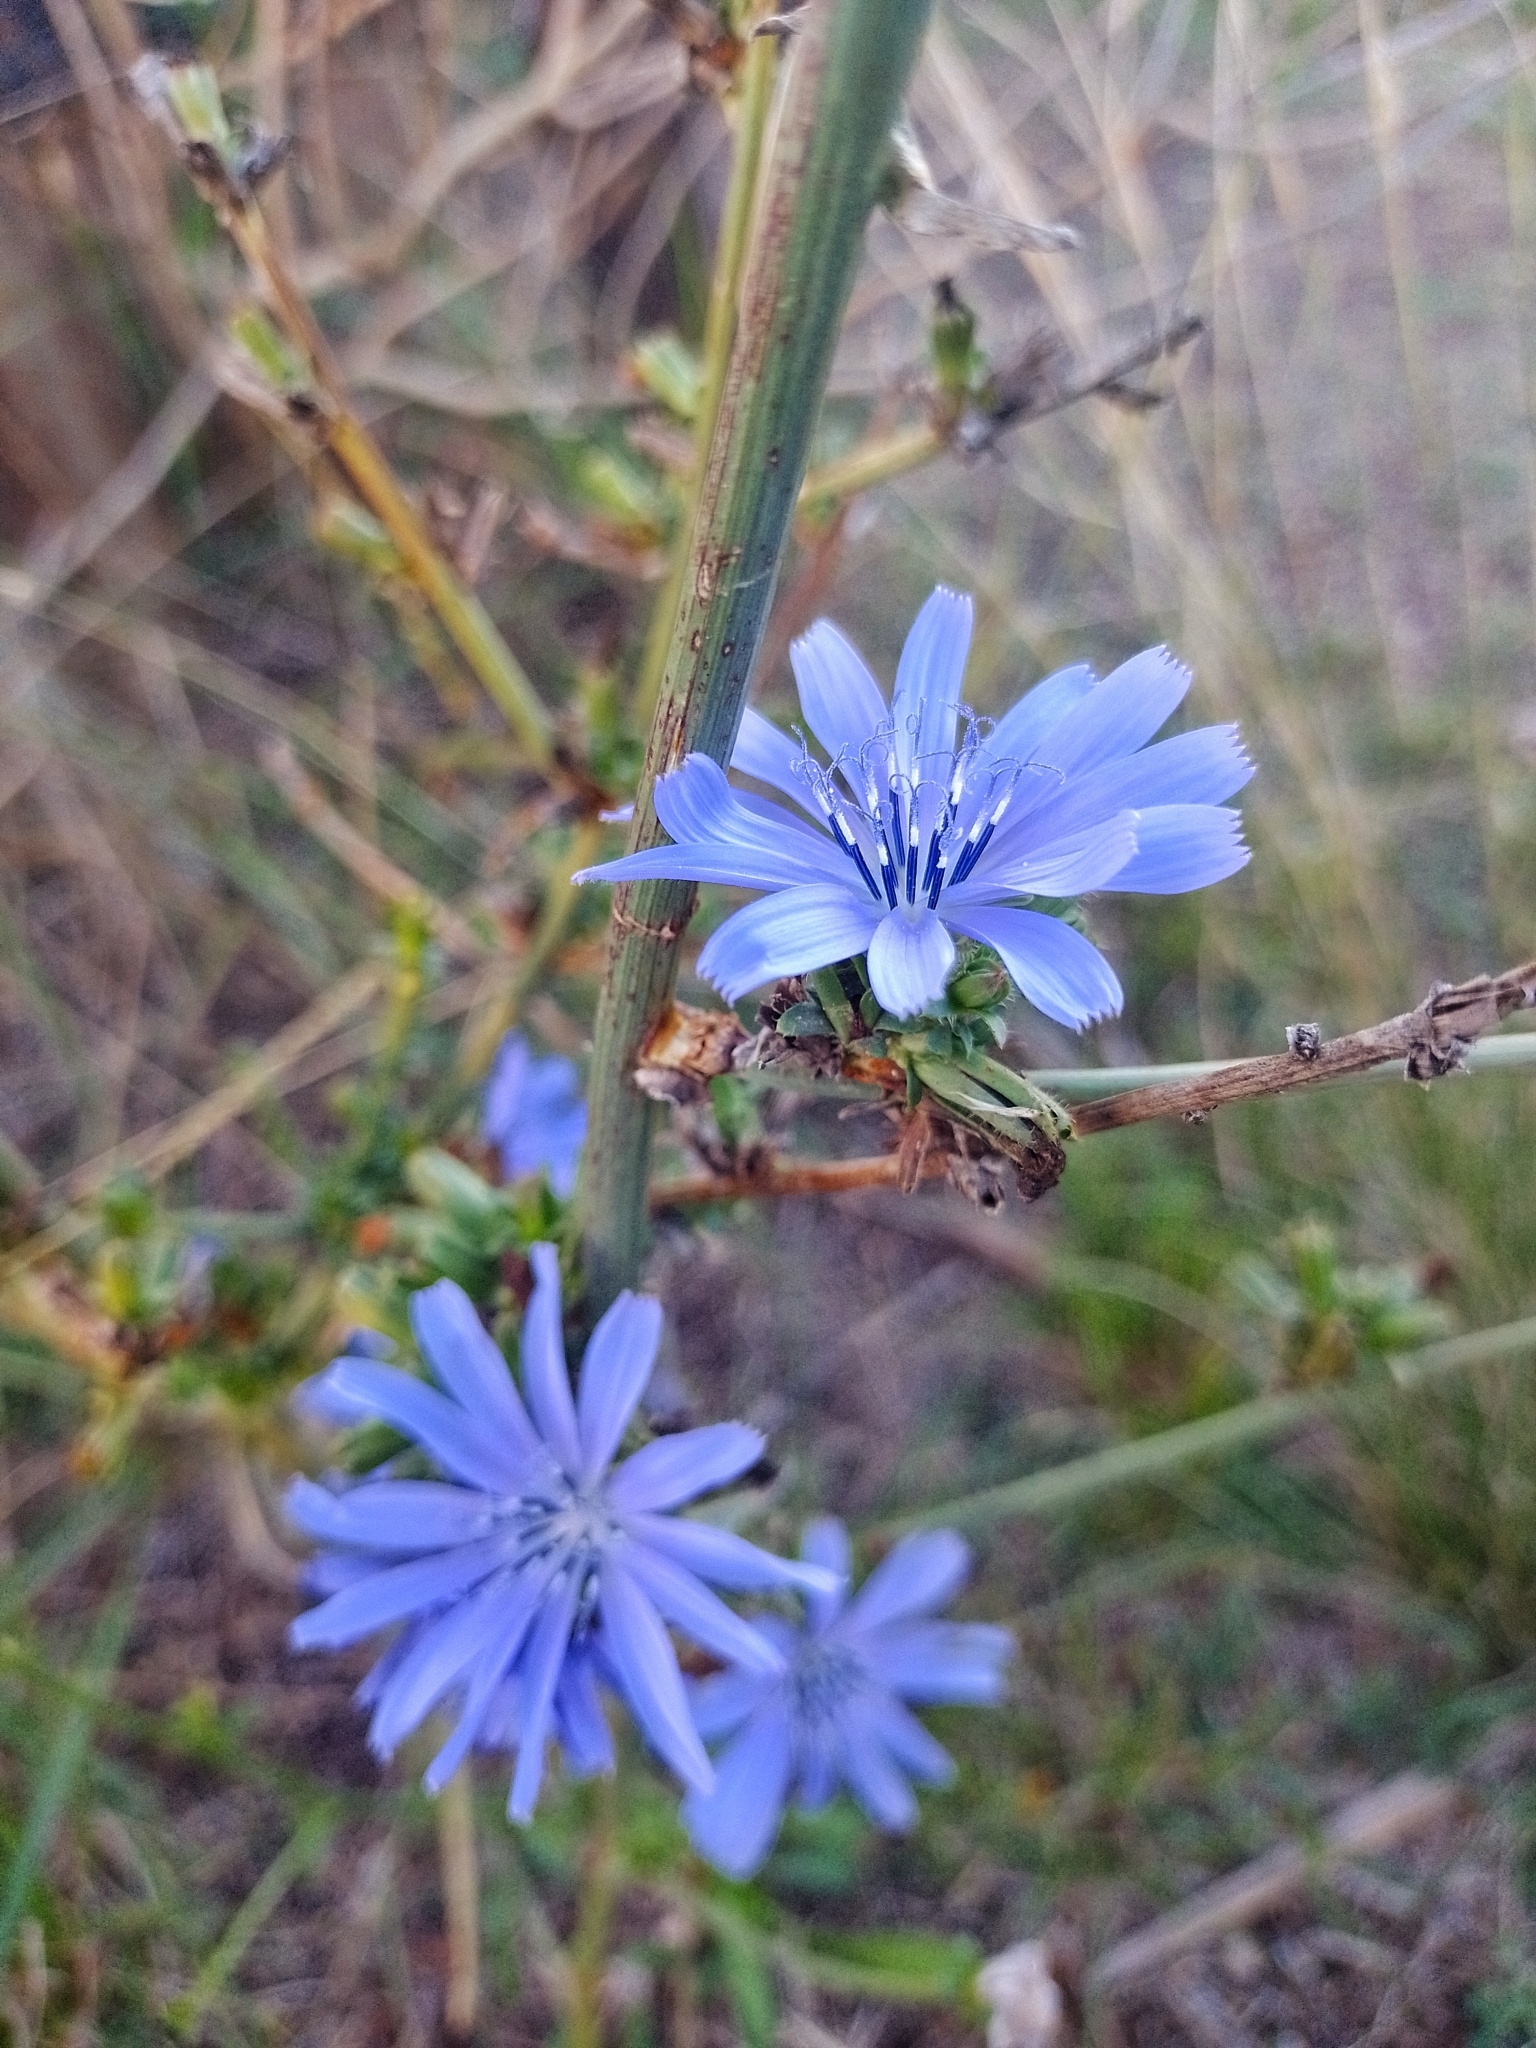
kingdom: Plantae
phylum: Tracheophyta
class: Magnoliopsida
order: Asterales
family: Asteraceae
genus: Cichorium
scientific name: Cichorium intybus
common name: Chicory
